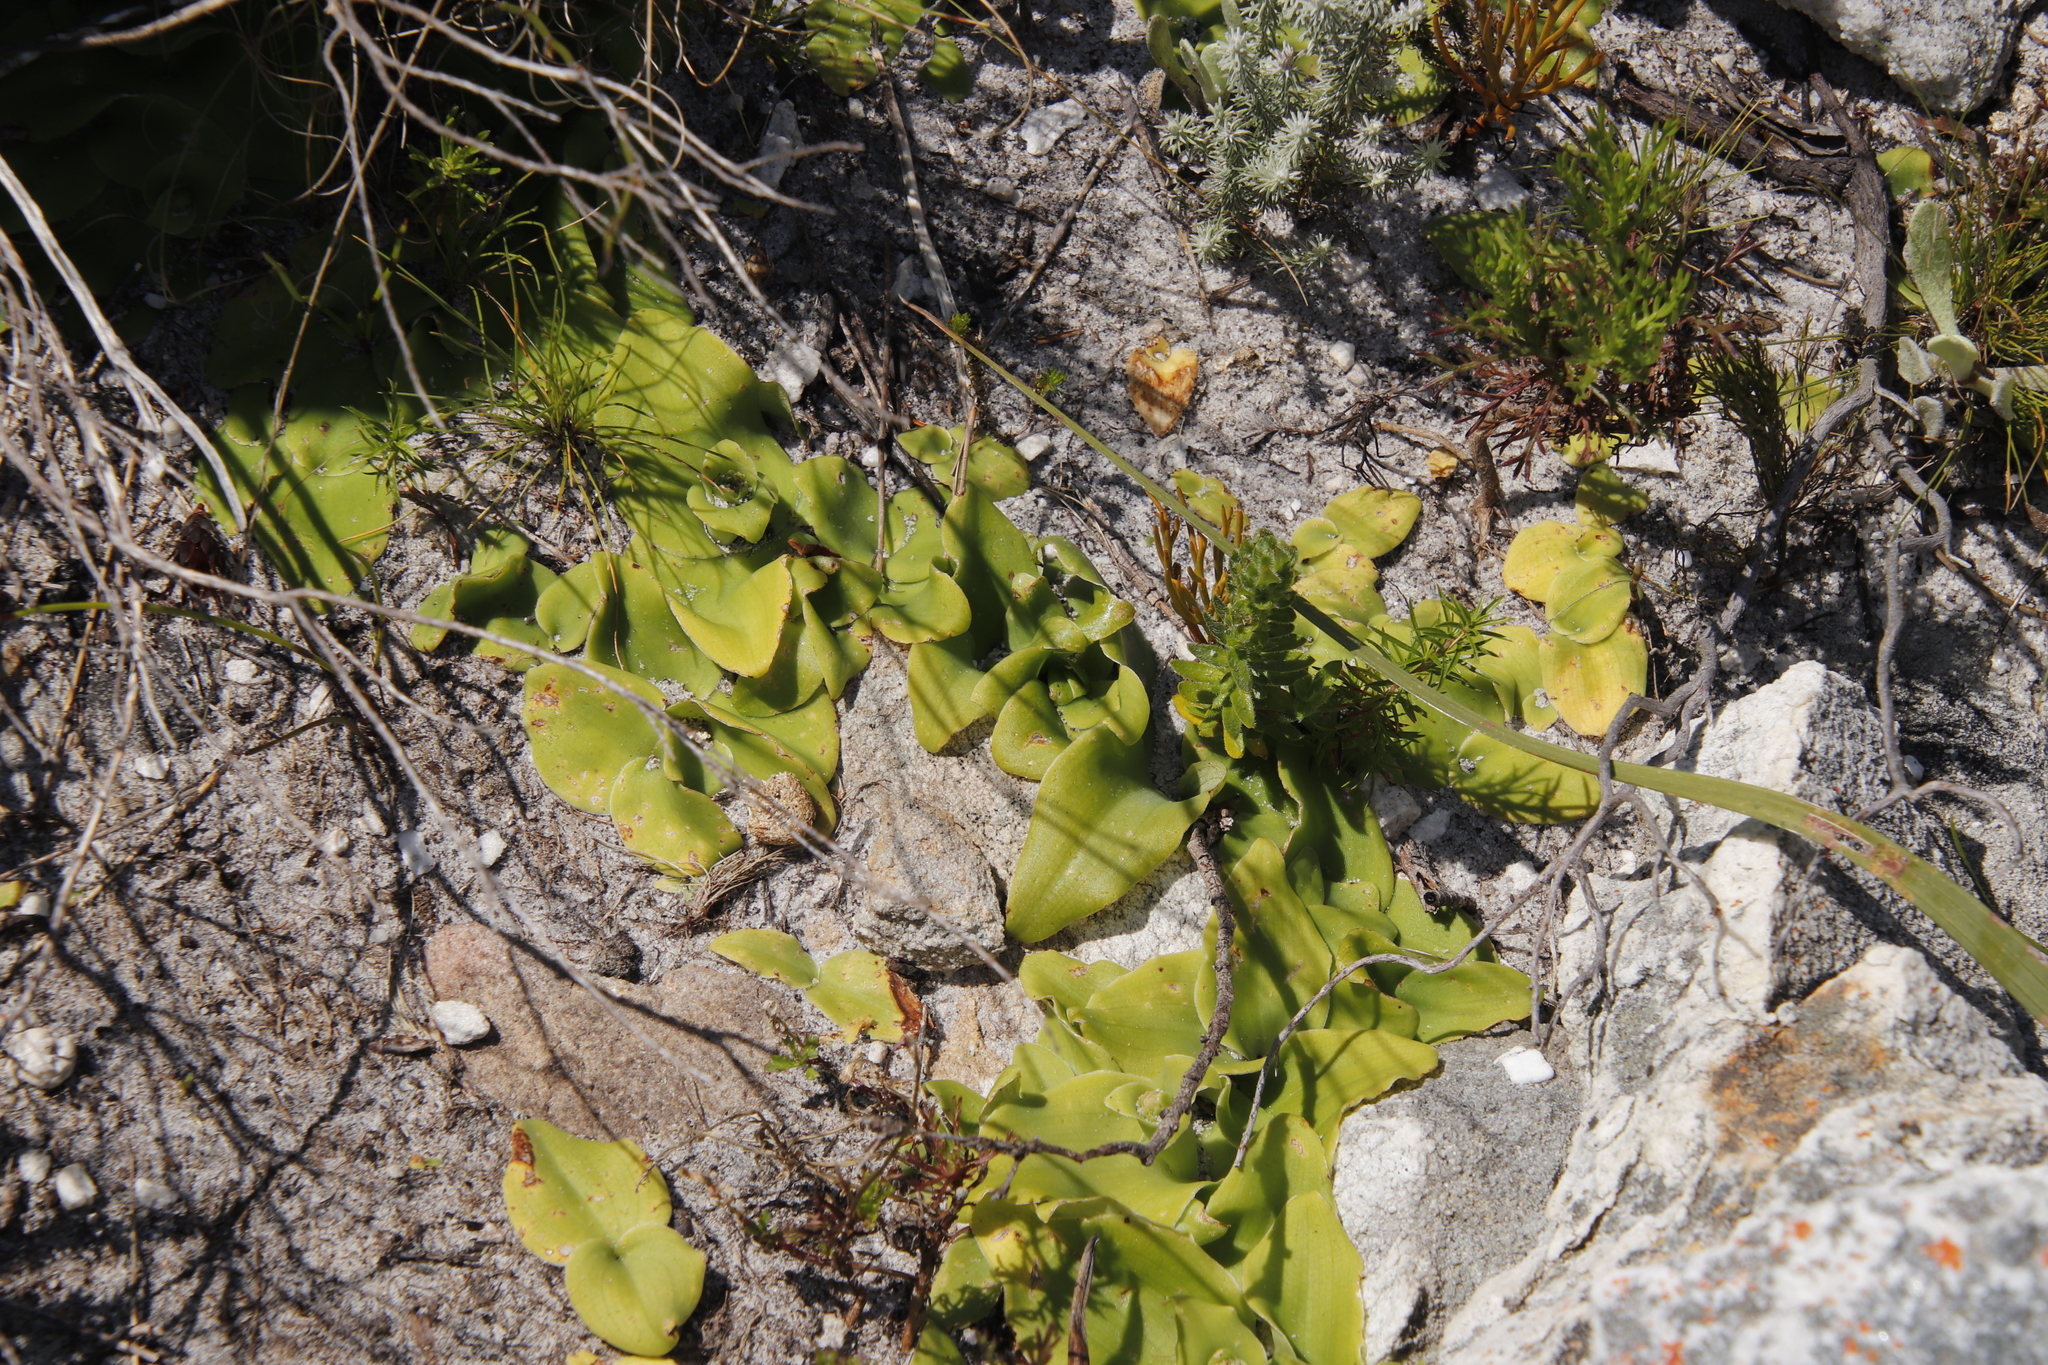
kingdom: Plantae
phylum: Tracheophyta
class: Liliopsida
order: Asparagales
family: Orchidaceae
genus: Satyrium
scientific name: Satyrium humile
